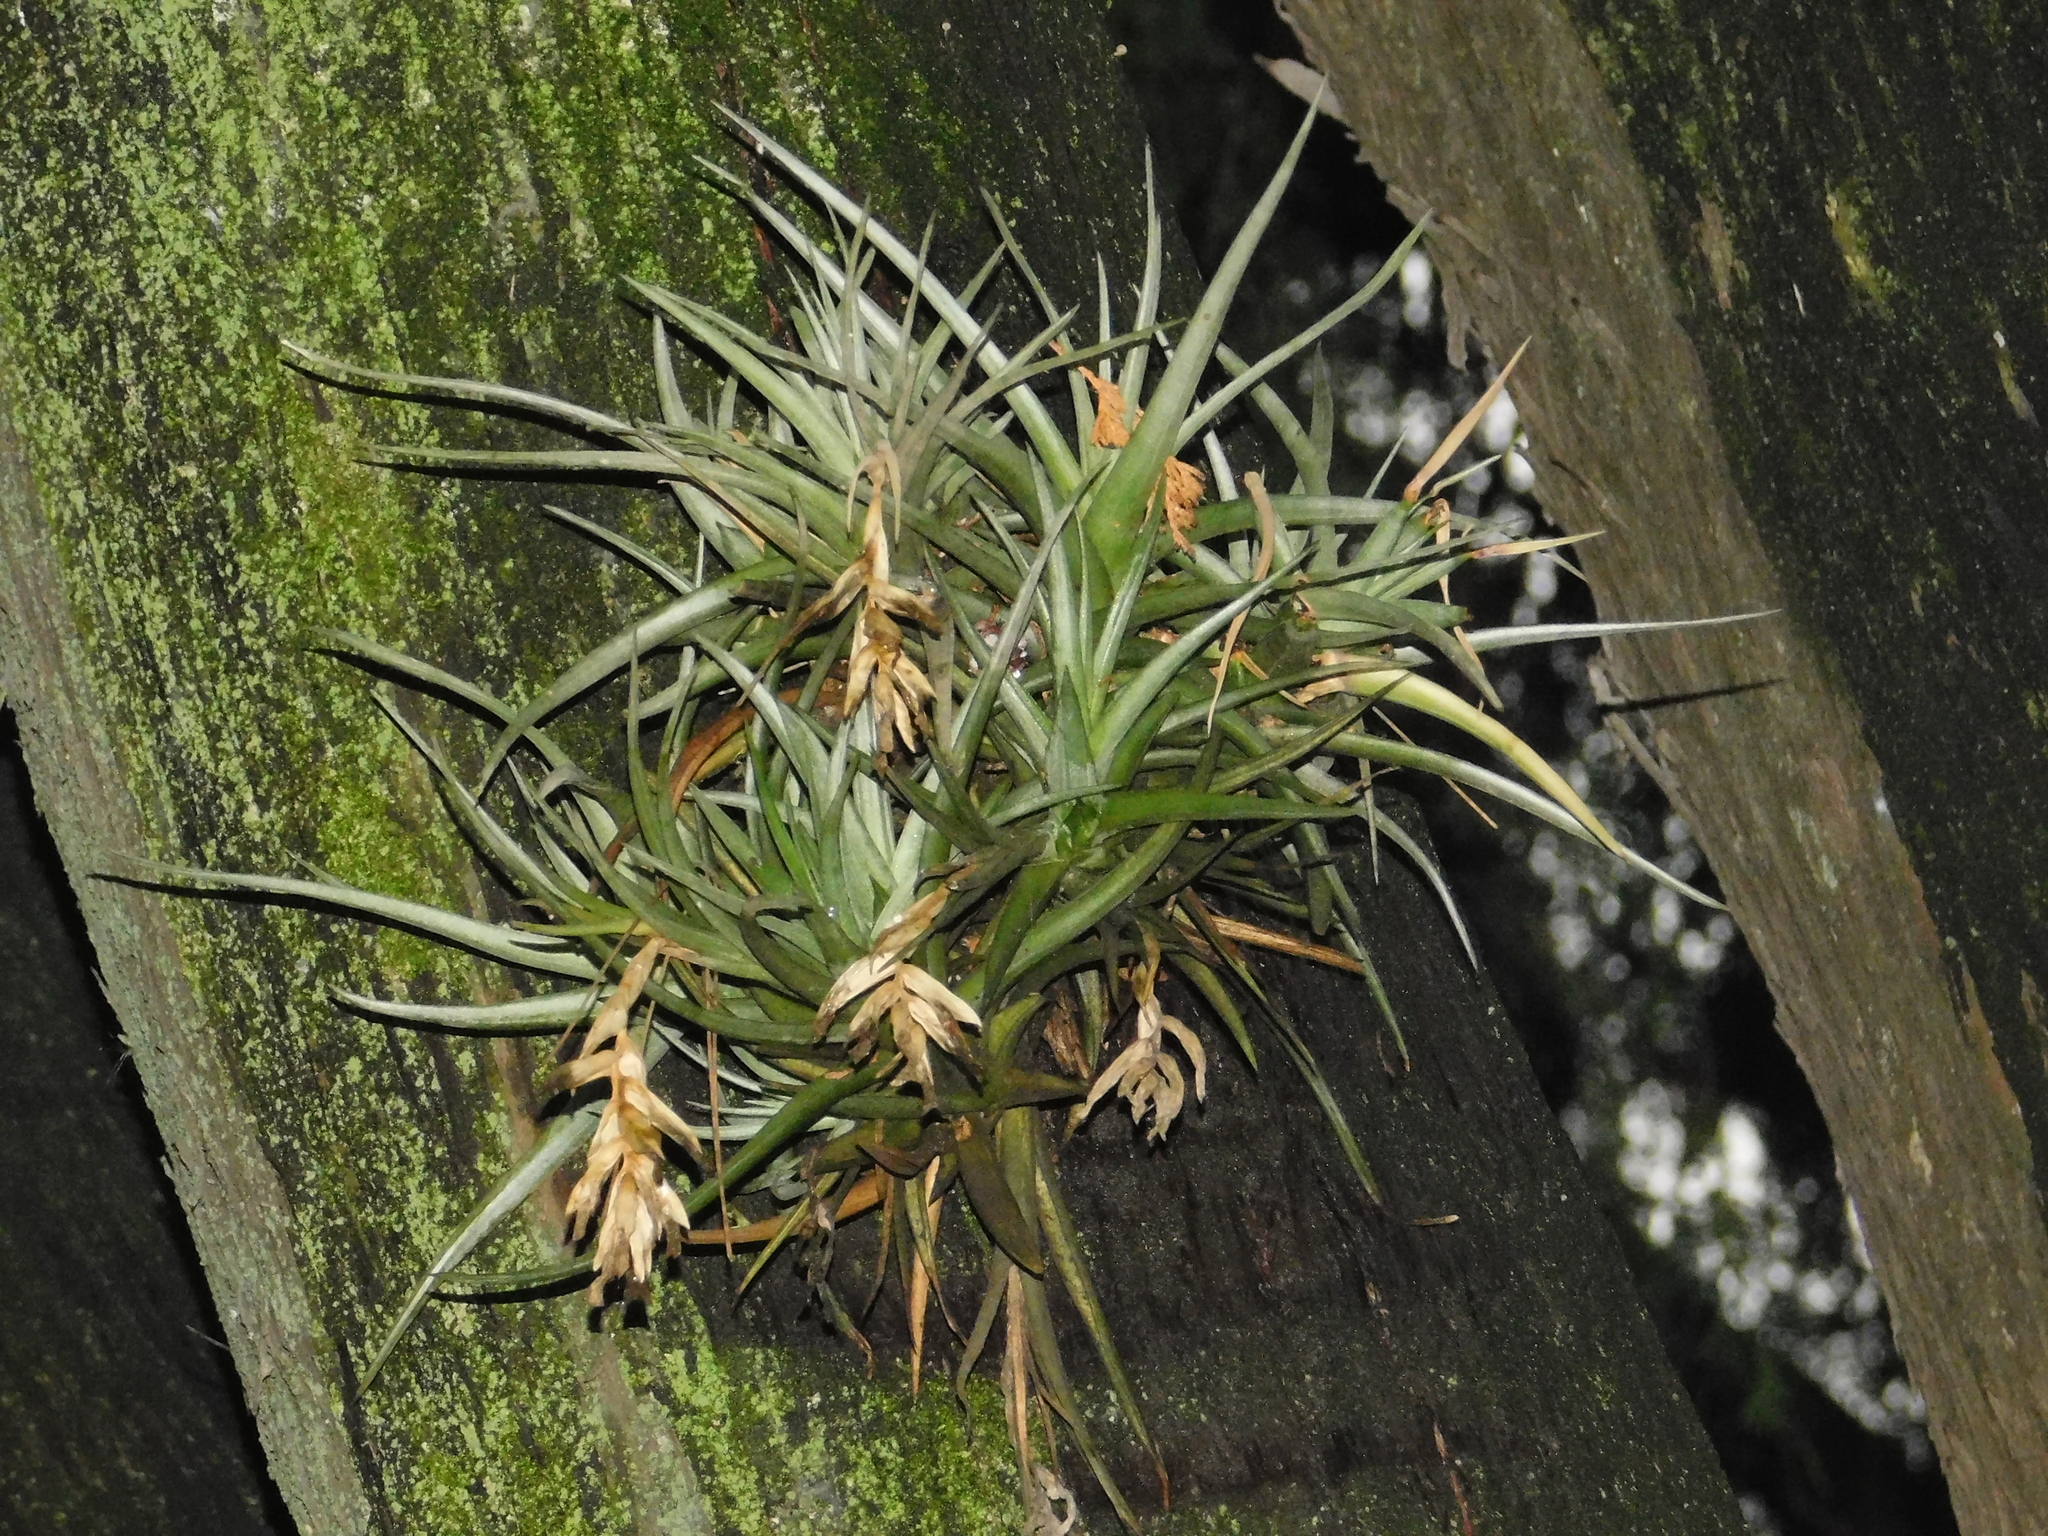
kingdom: Plantae
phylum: Tracheophyta
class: Liliopsida
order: Poales
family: Bromeliaceae
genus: Tillandsia
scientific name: Tillandsia aeranthos
